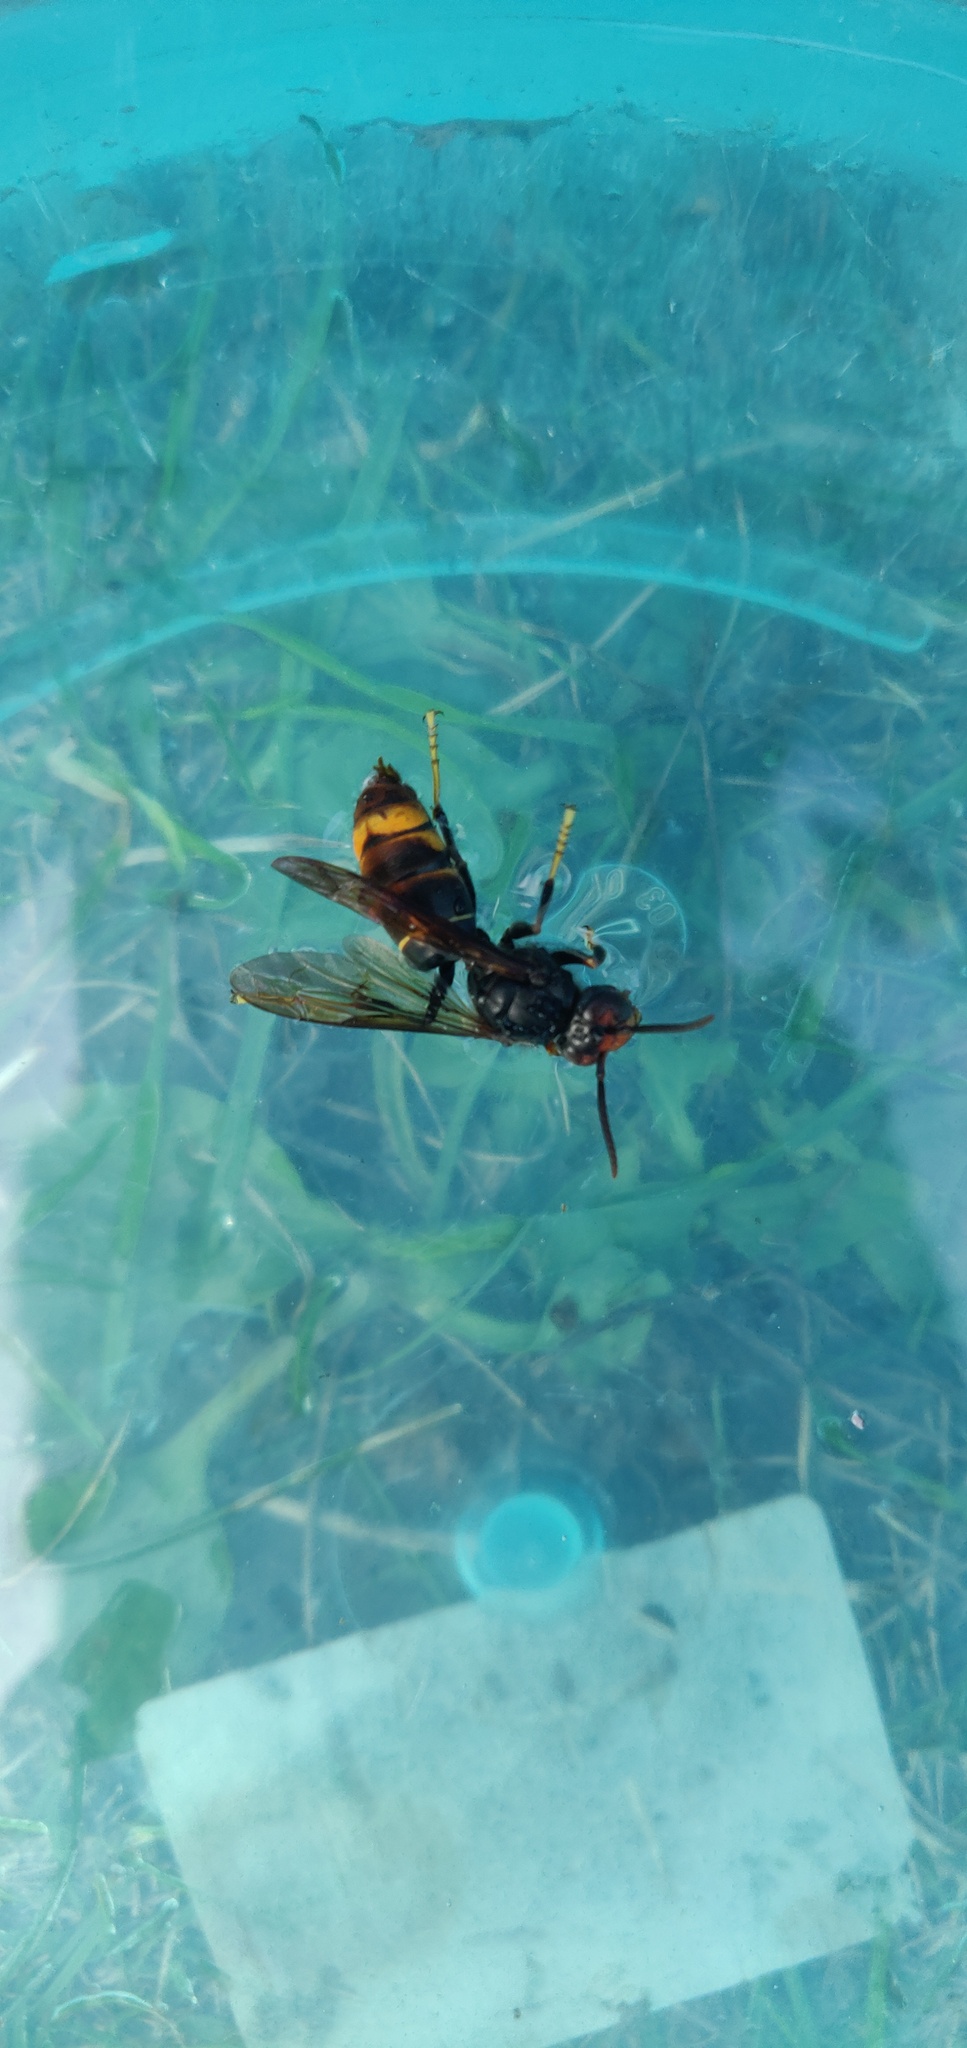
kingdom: Animalia
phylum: Arthropoda
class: Insecta
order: Hymenoptera
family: Vespidae
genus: Vespa
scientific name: Vespa velutina
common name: Asian hornet
